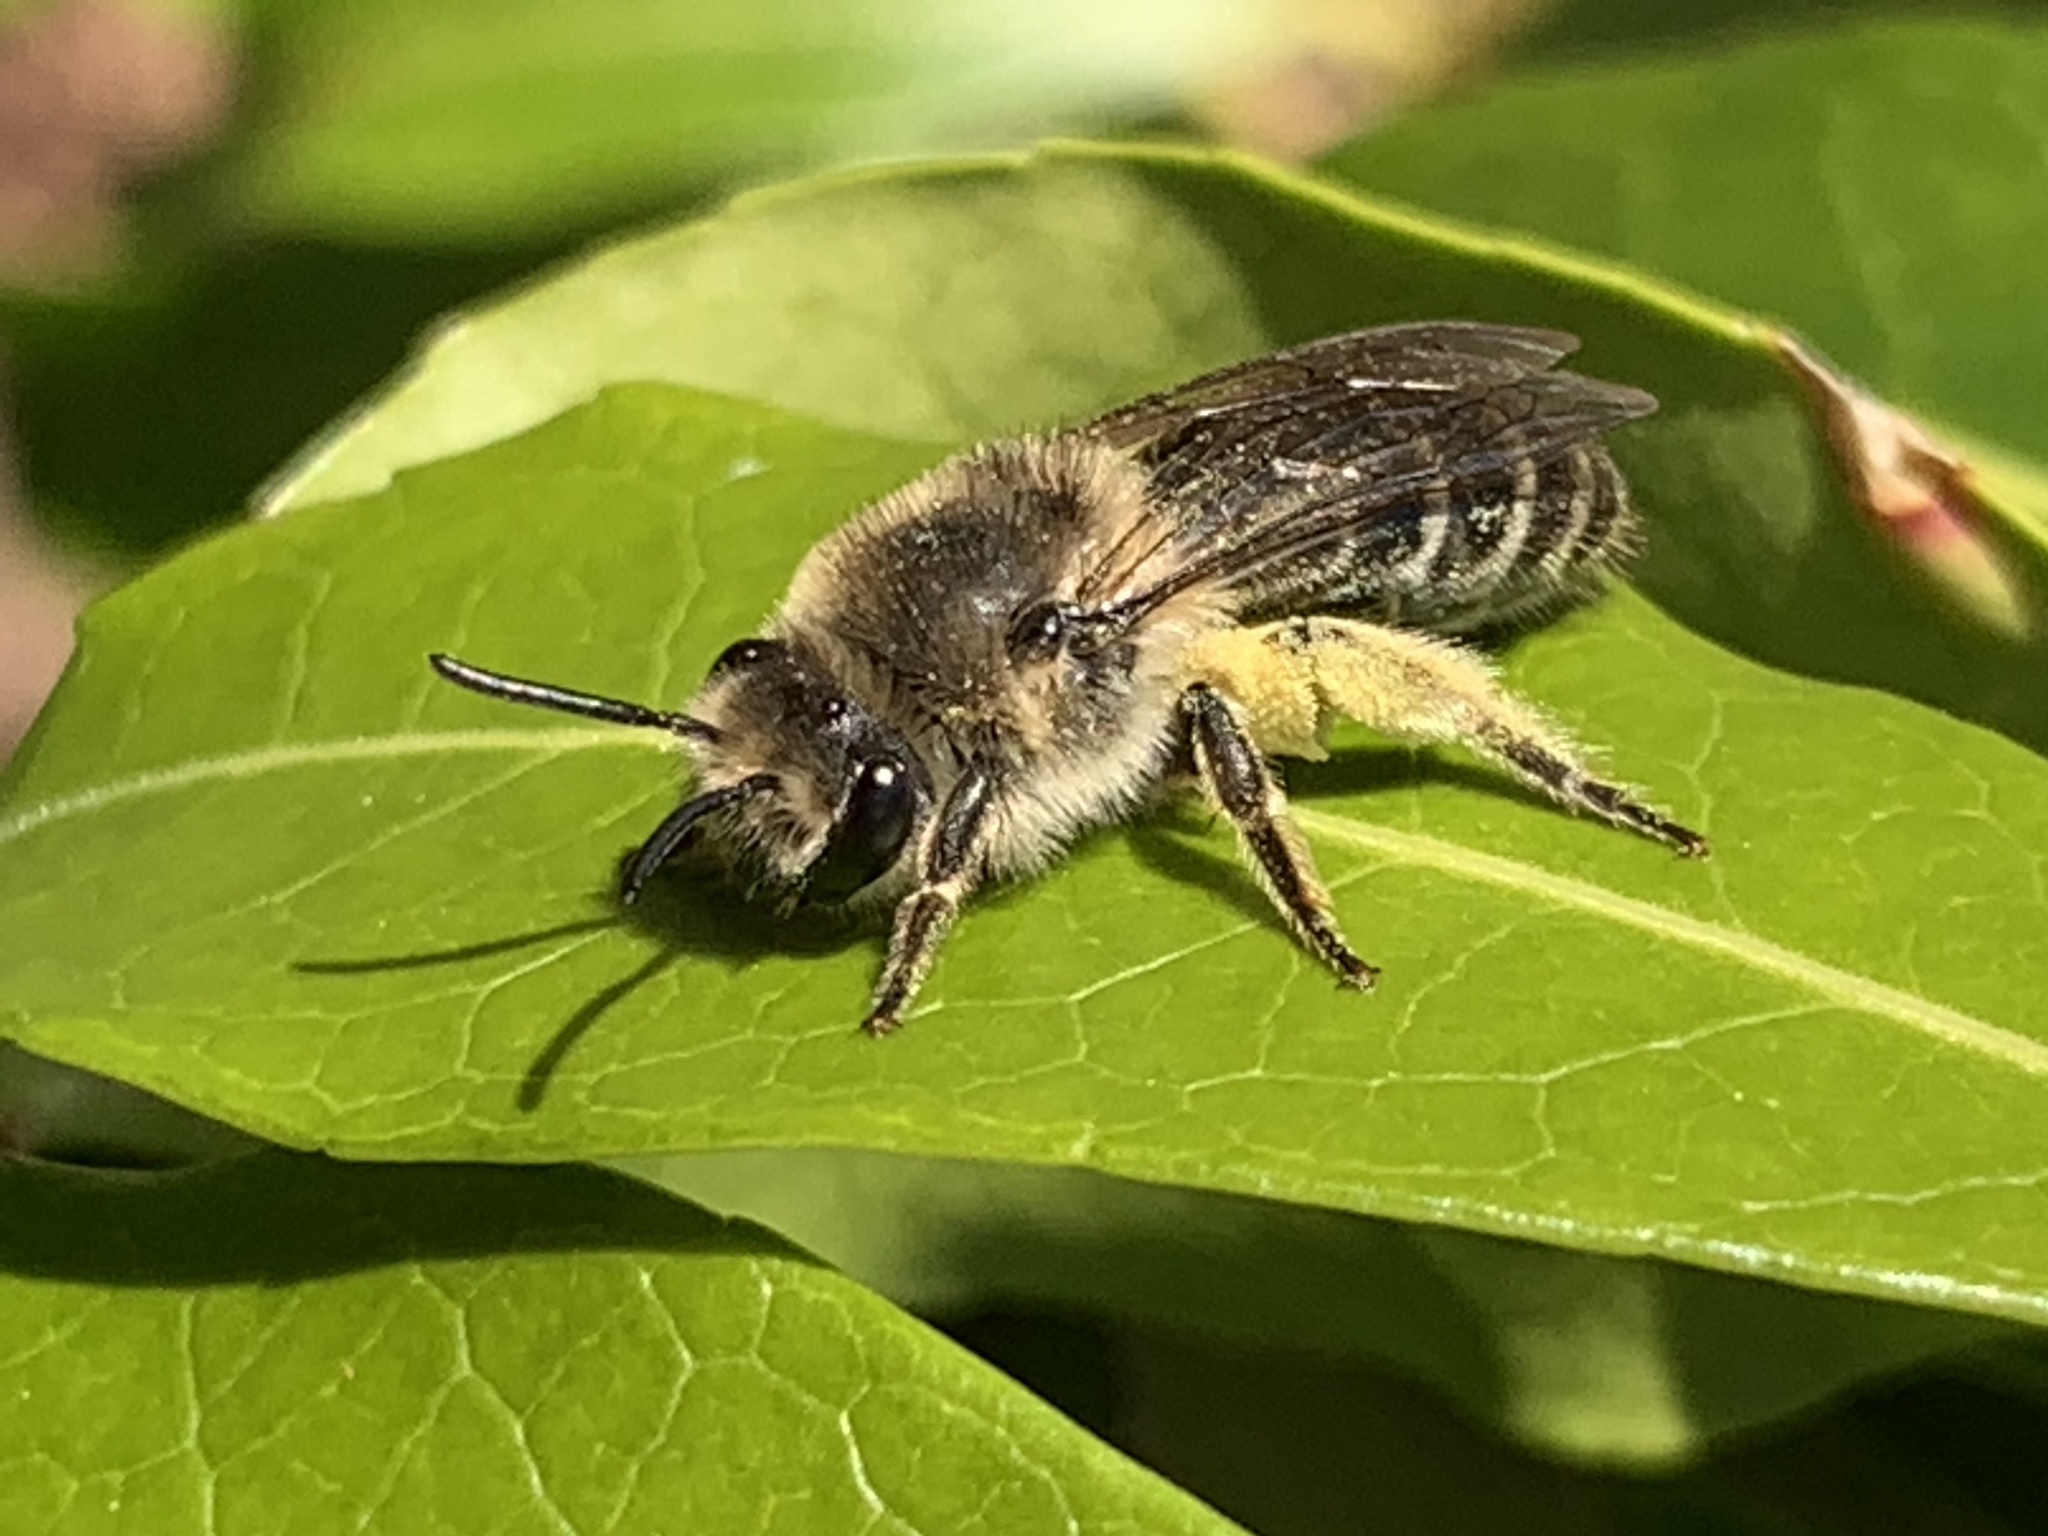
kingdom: Animalia
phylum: Arthropoda
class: Insecta
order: Hymenoptera
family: Colletidae
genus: Colletes
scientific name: Colletes inaequalis
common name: Unequal cellophane bee
